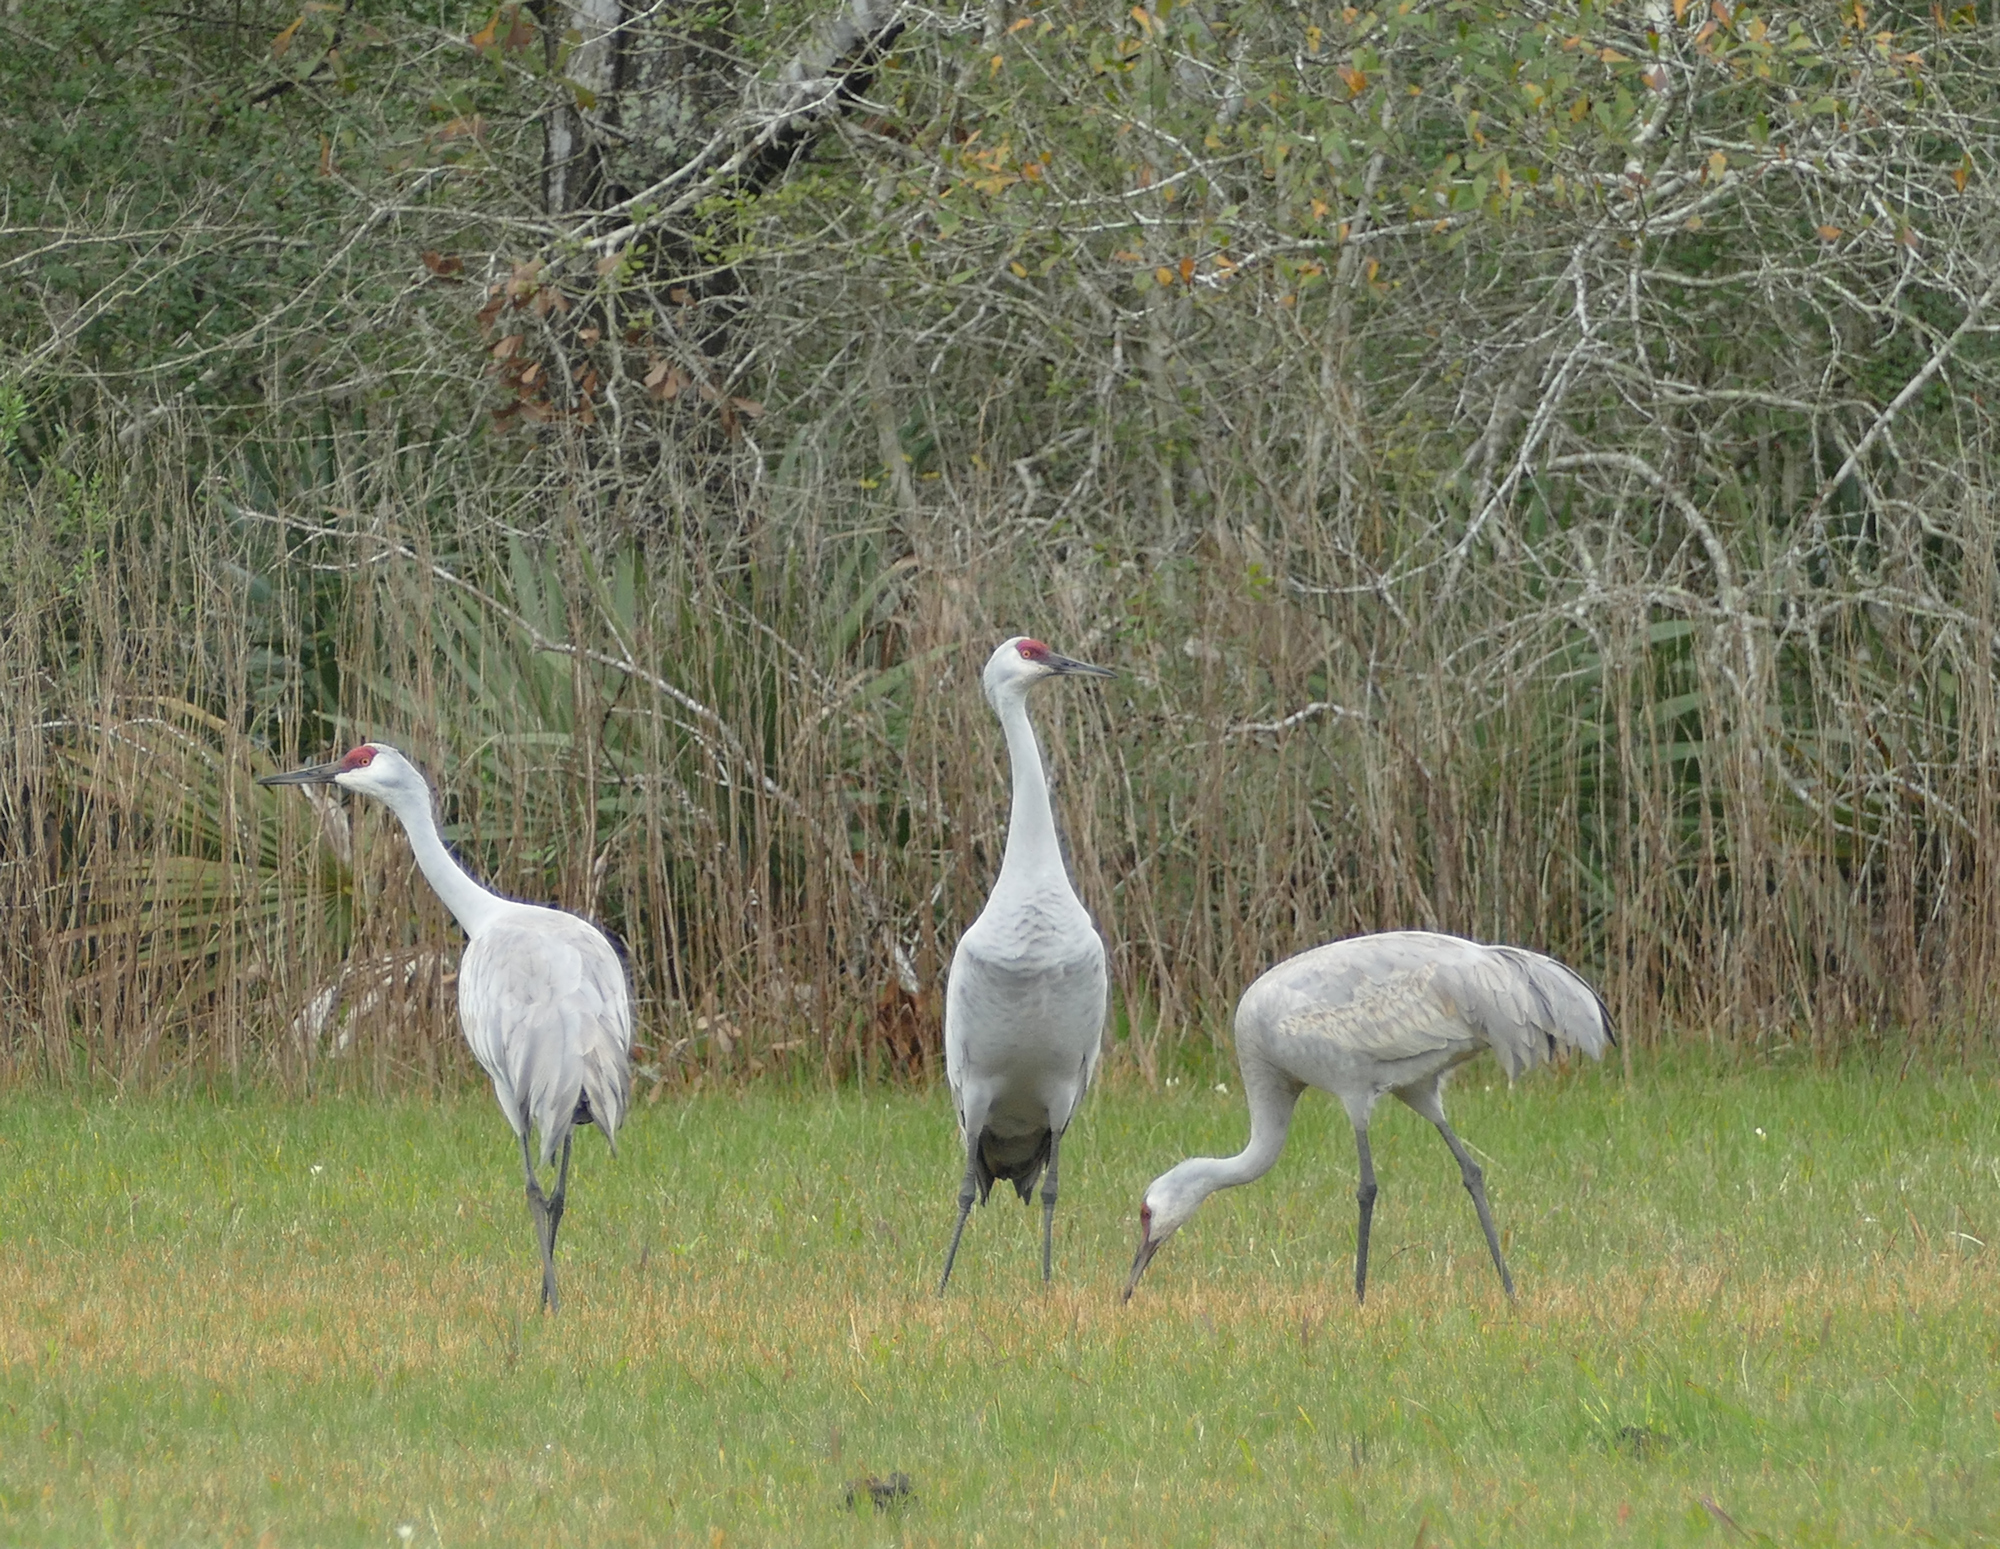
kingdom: Animalia
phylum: Chordata
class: Aves
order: Gruiformes
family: Gruidae
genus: Grus
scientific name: Grus canadensis
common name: Sandhill crane
